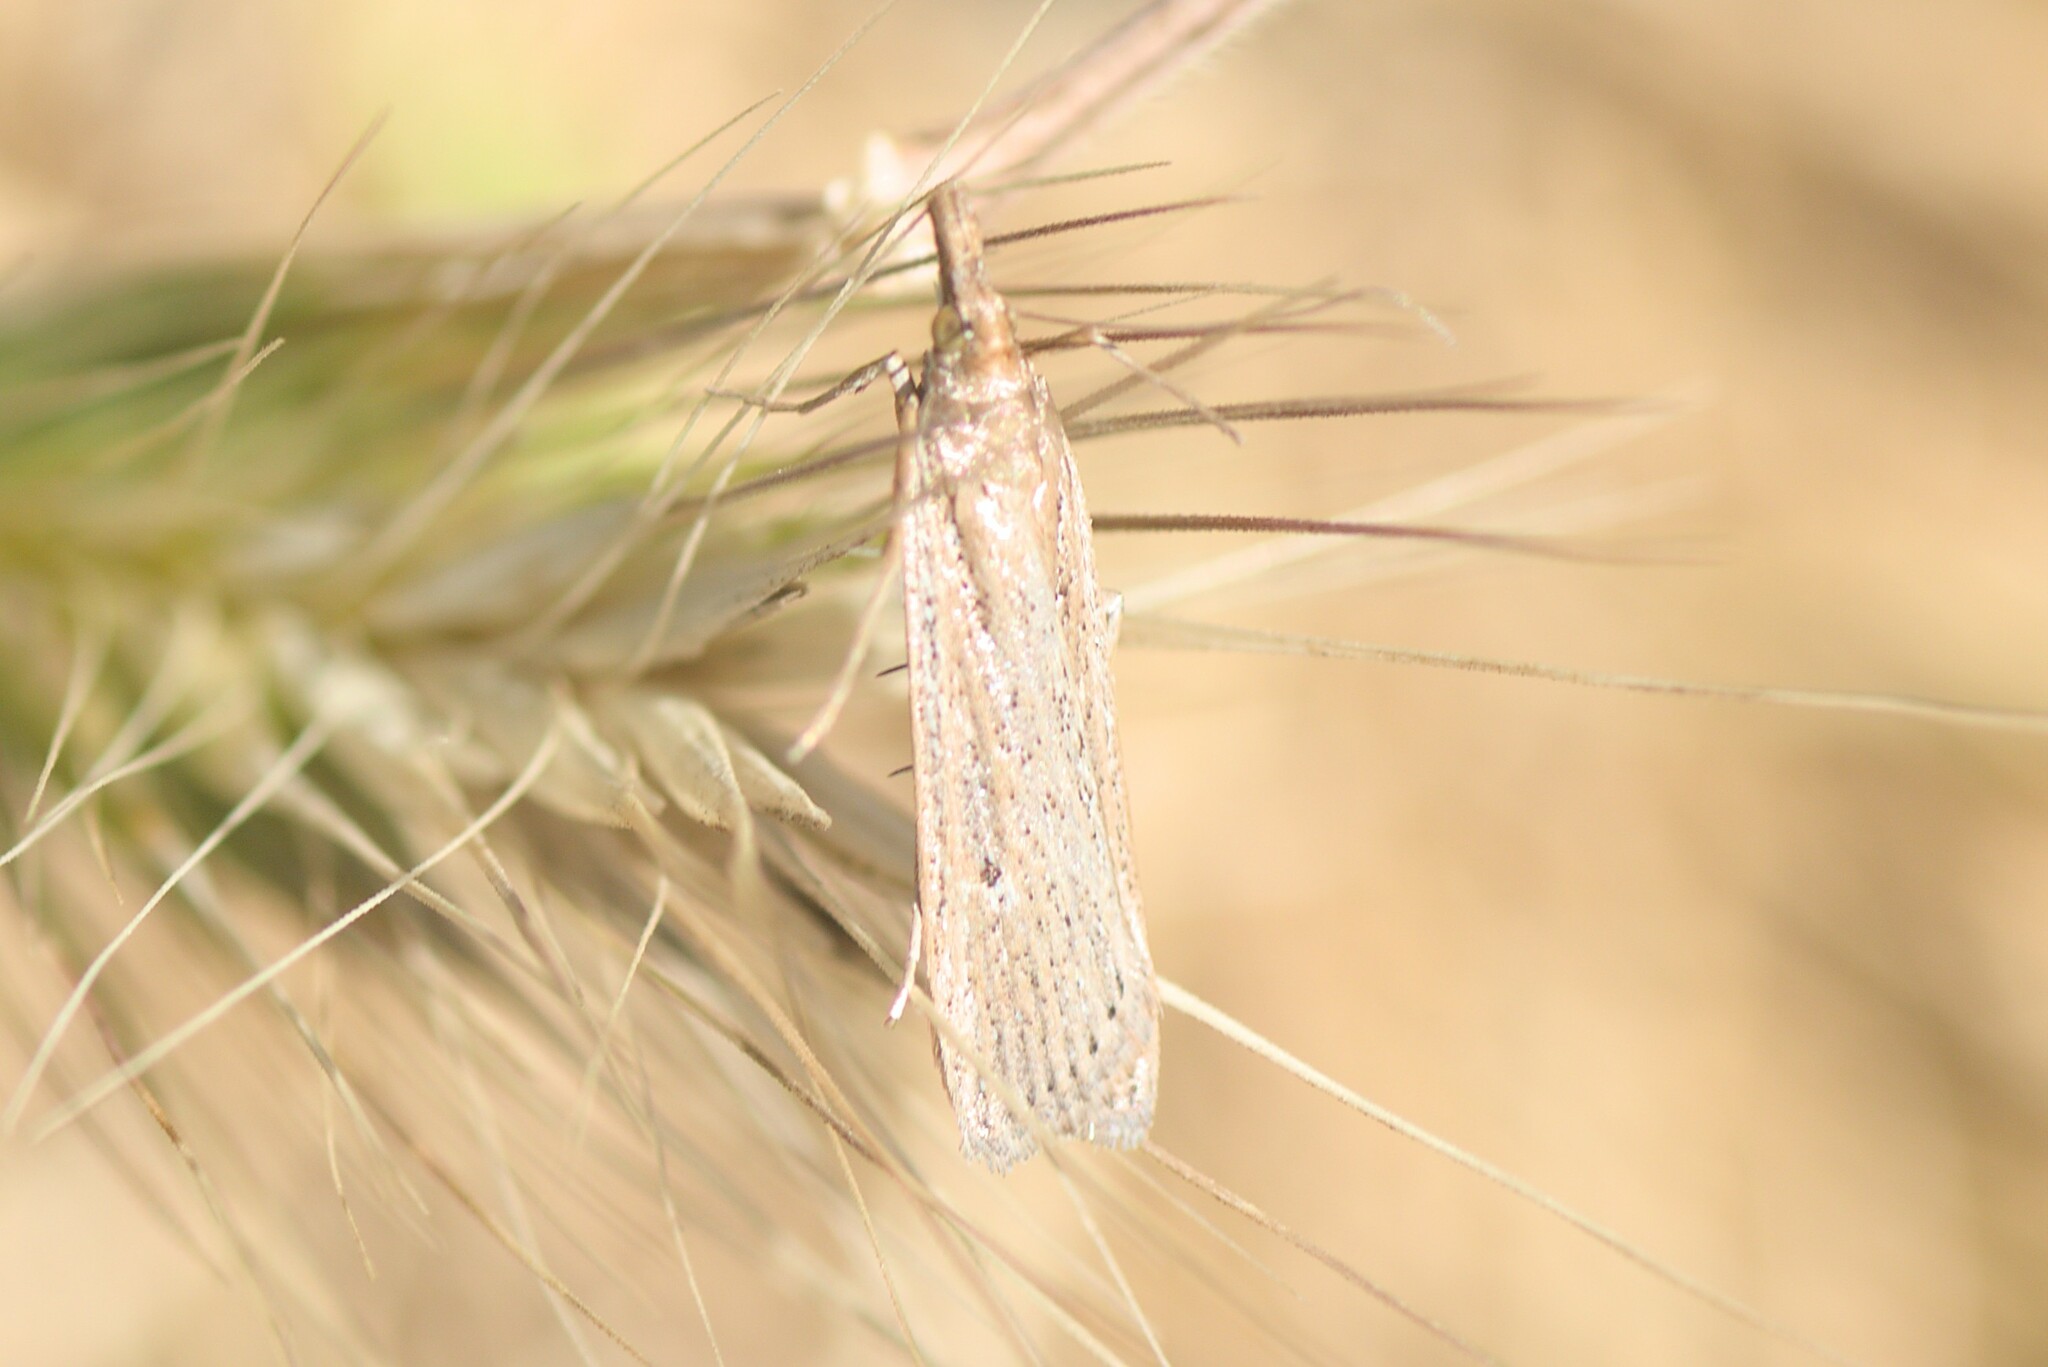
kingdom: Animalia
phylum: Arthropoda
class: Insecta
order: Lepidoptera
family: Crambidae
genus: Eudonia
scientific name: Eudonia sabulosella
